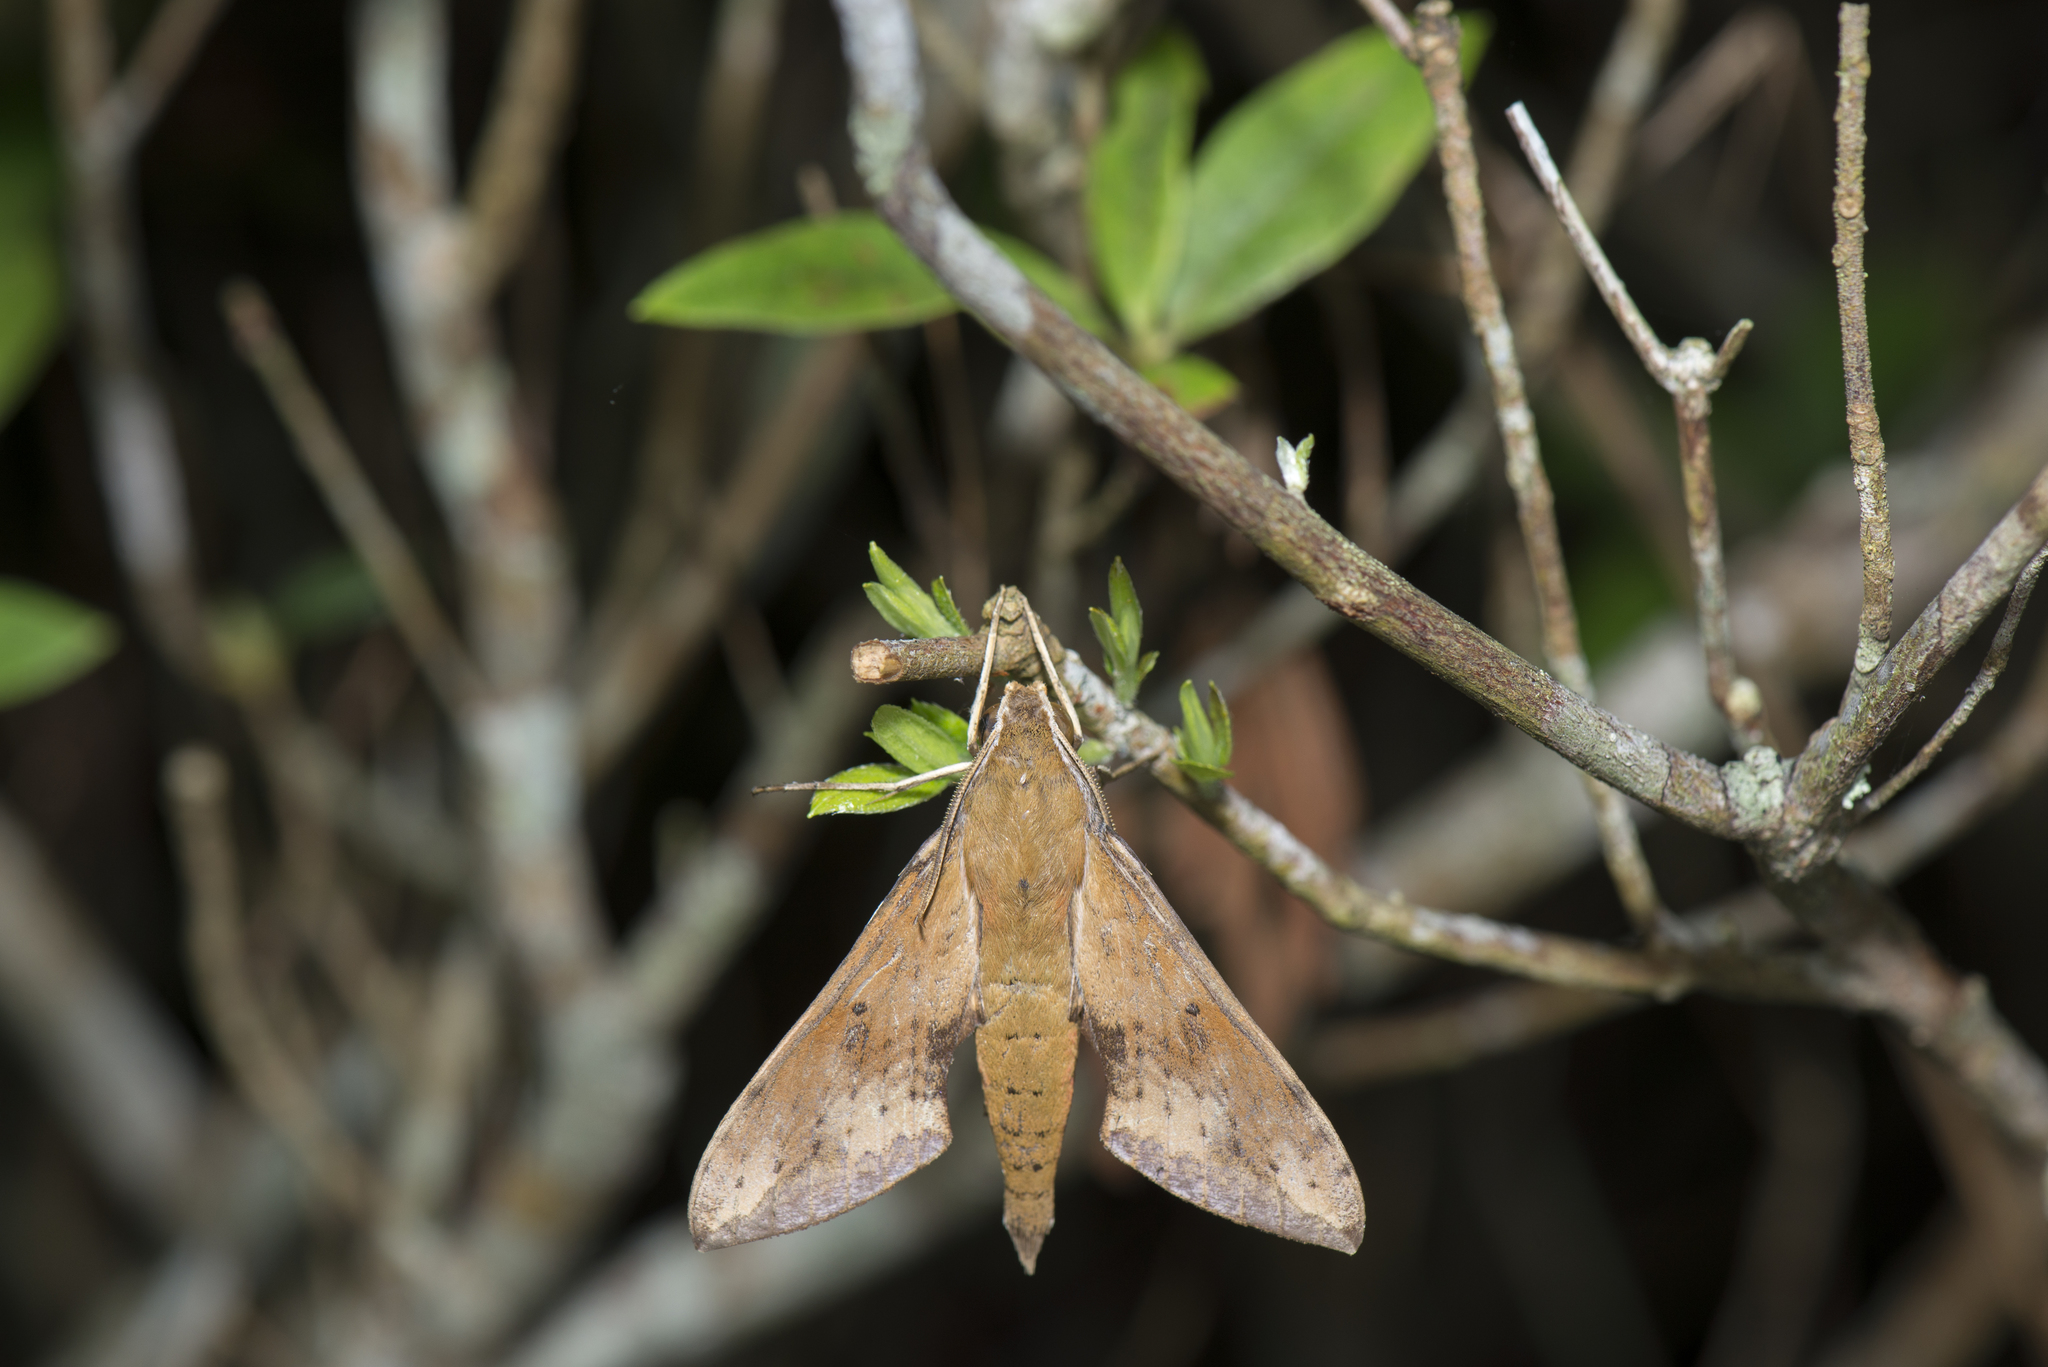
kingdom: Animalia
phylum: Arthropoda
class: Insecta
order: Lepidoptera
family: Sphingidae
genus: Rhagastis
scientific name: Rhagastis castor
